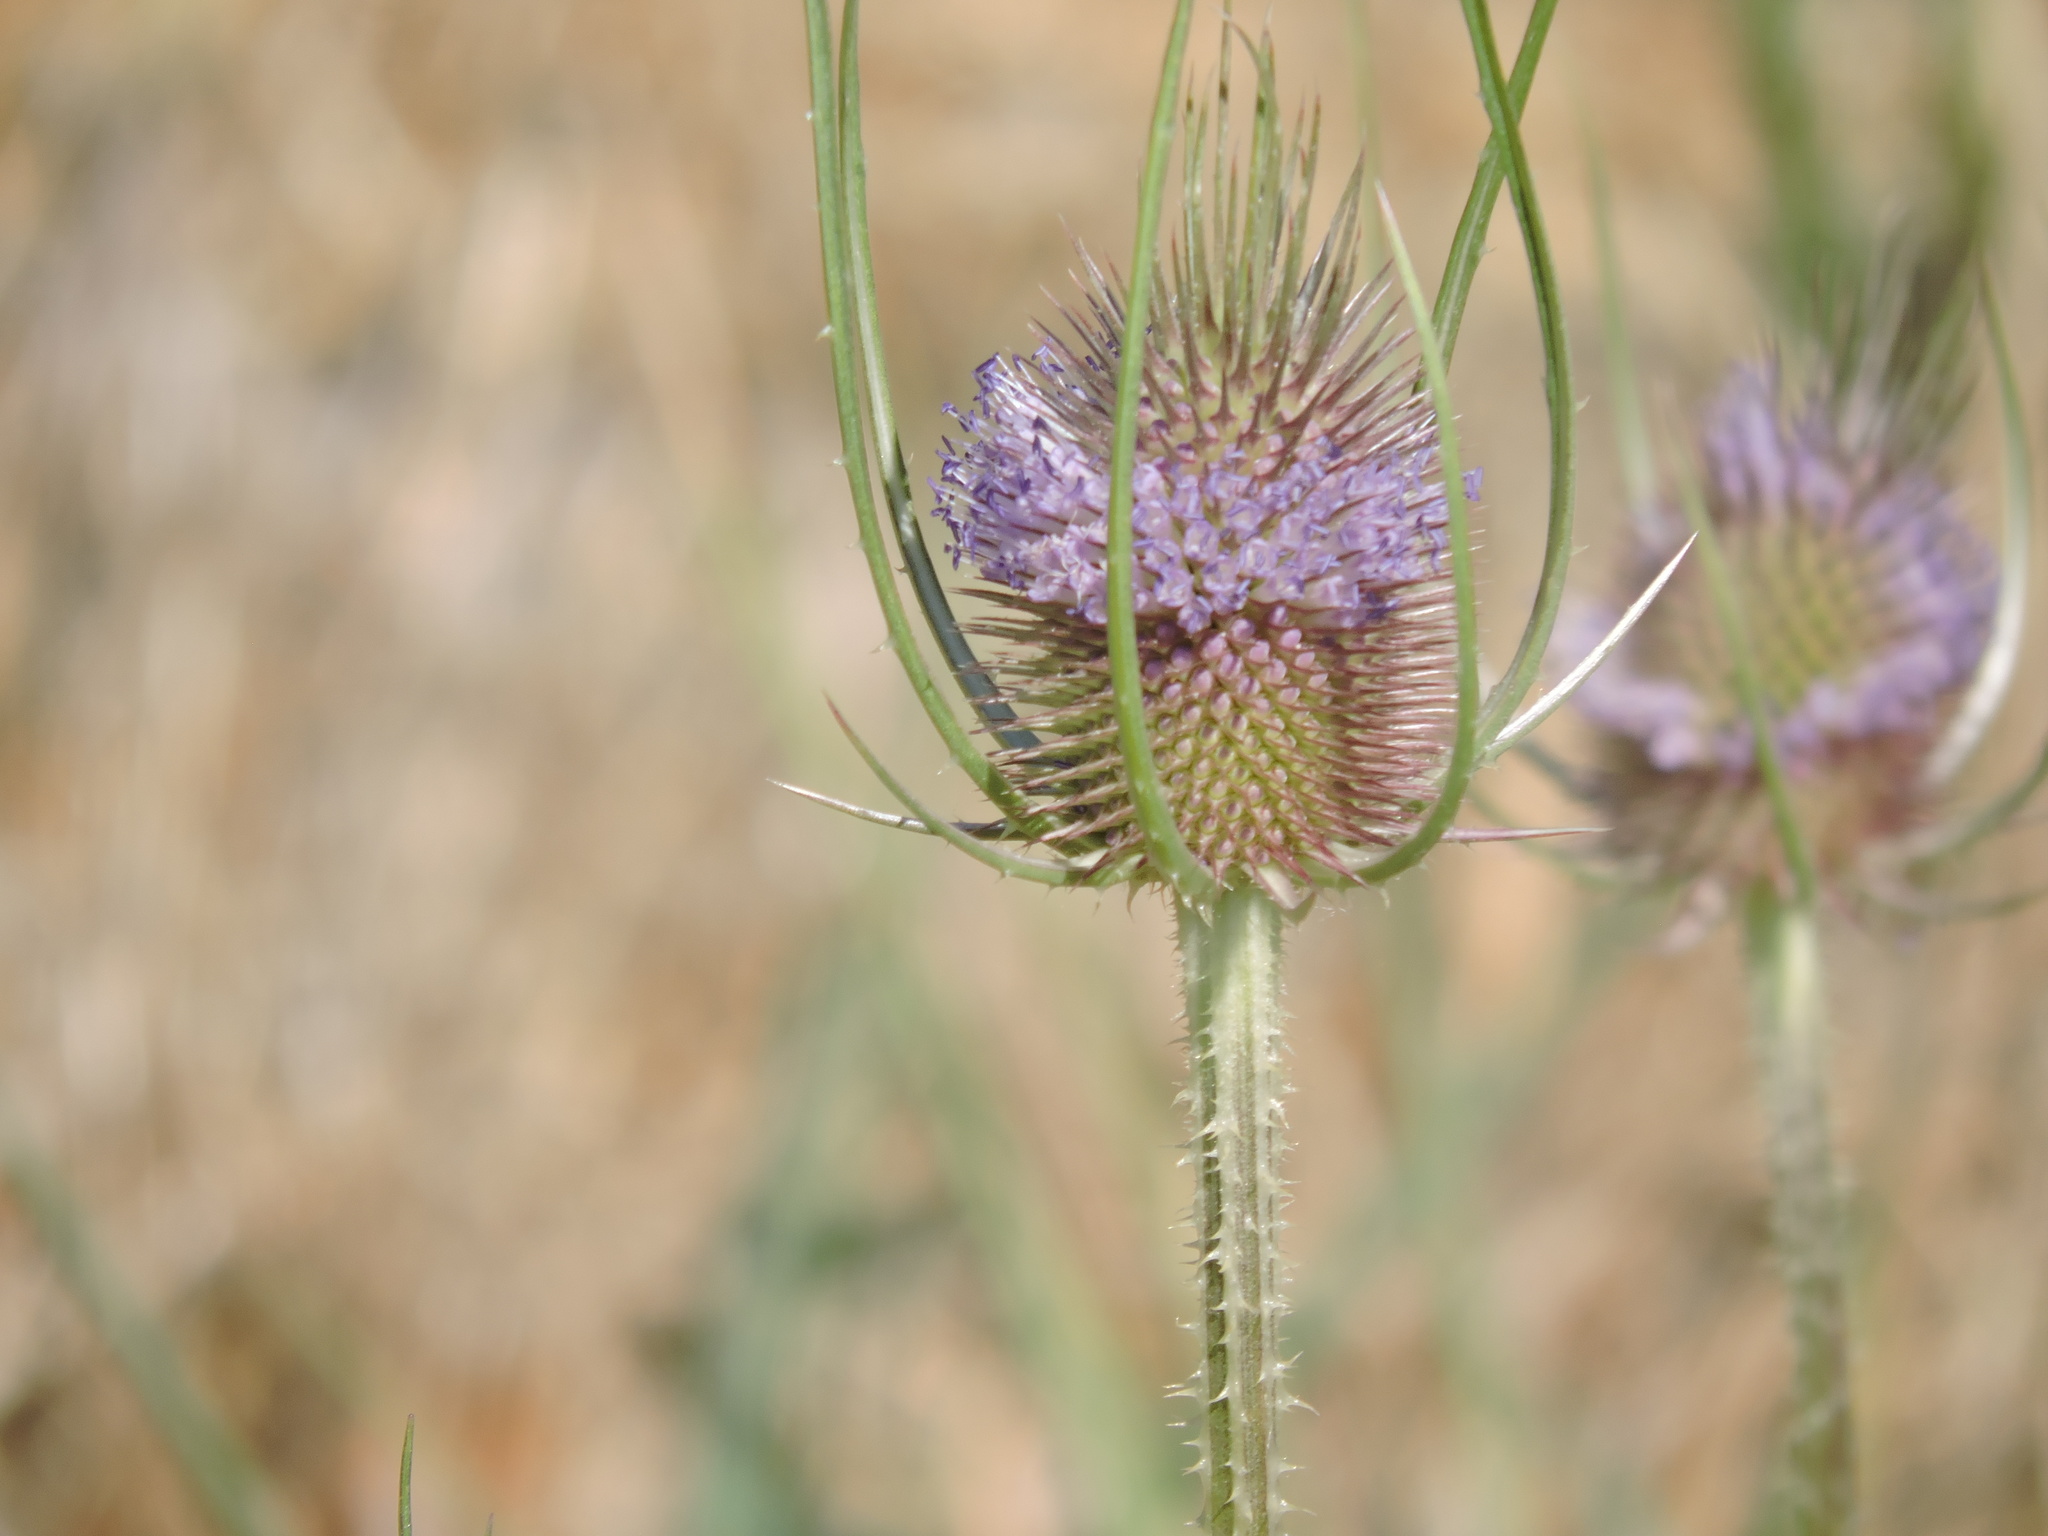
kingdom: Plantae
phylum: Tracheophyta
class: Magnoliopsida
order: Dipsacales
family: Caprifoliaceae
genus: Dipsacus
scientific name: Dipsacus fullonum
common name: Teasel
